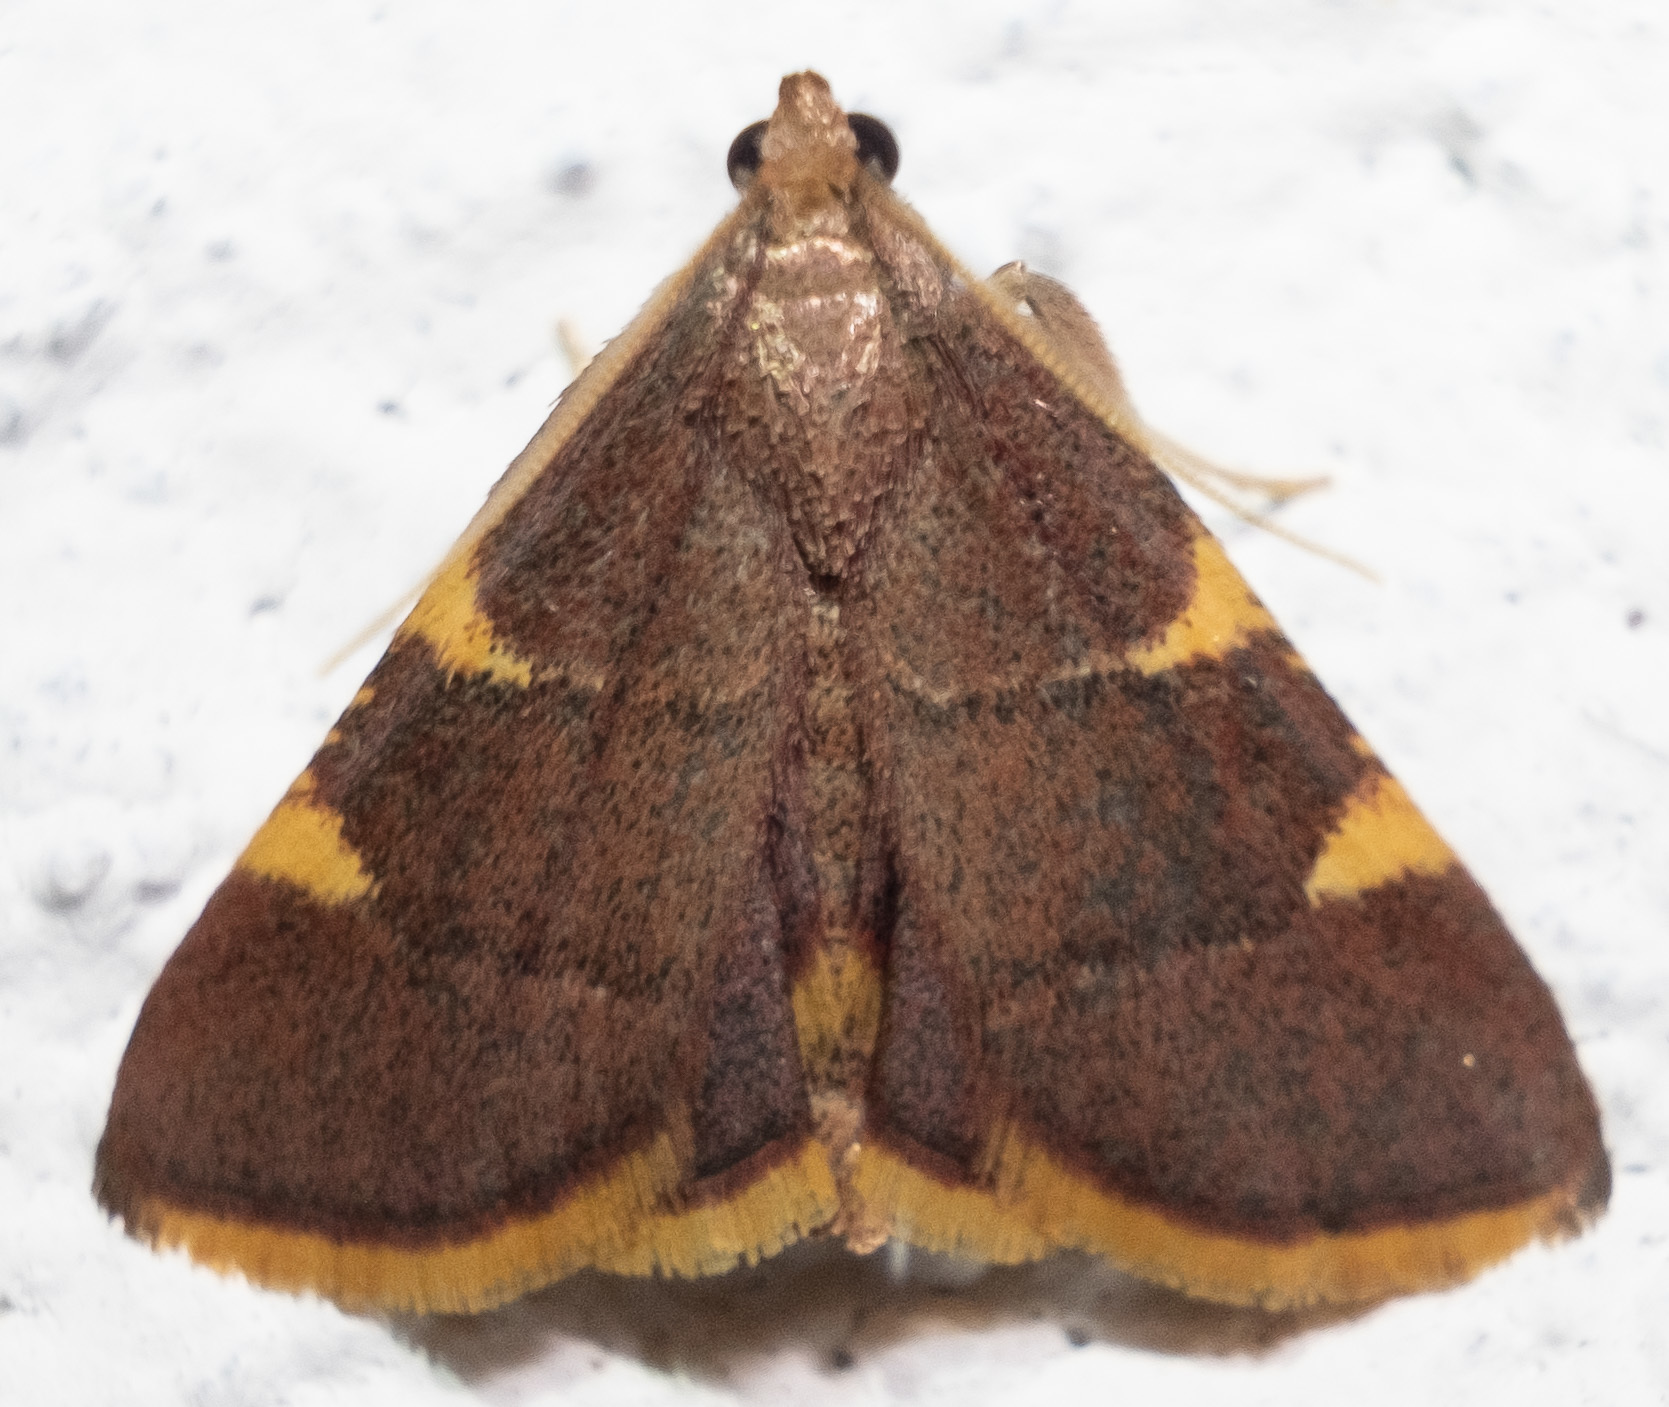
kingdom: Animalia
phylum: Arthropoda
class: Insecta
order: Lepidoptera
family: Pyralidae
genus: Hypsopygia
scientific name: Hypsopygia olinalis
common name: Yellow-fringed dolichomia moth
